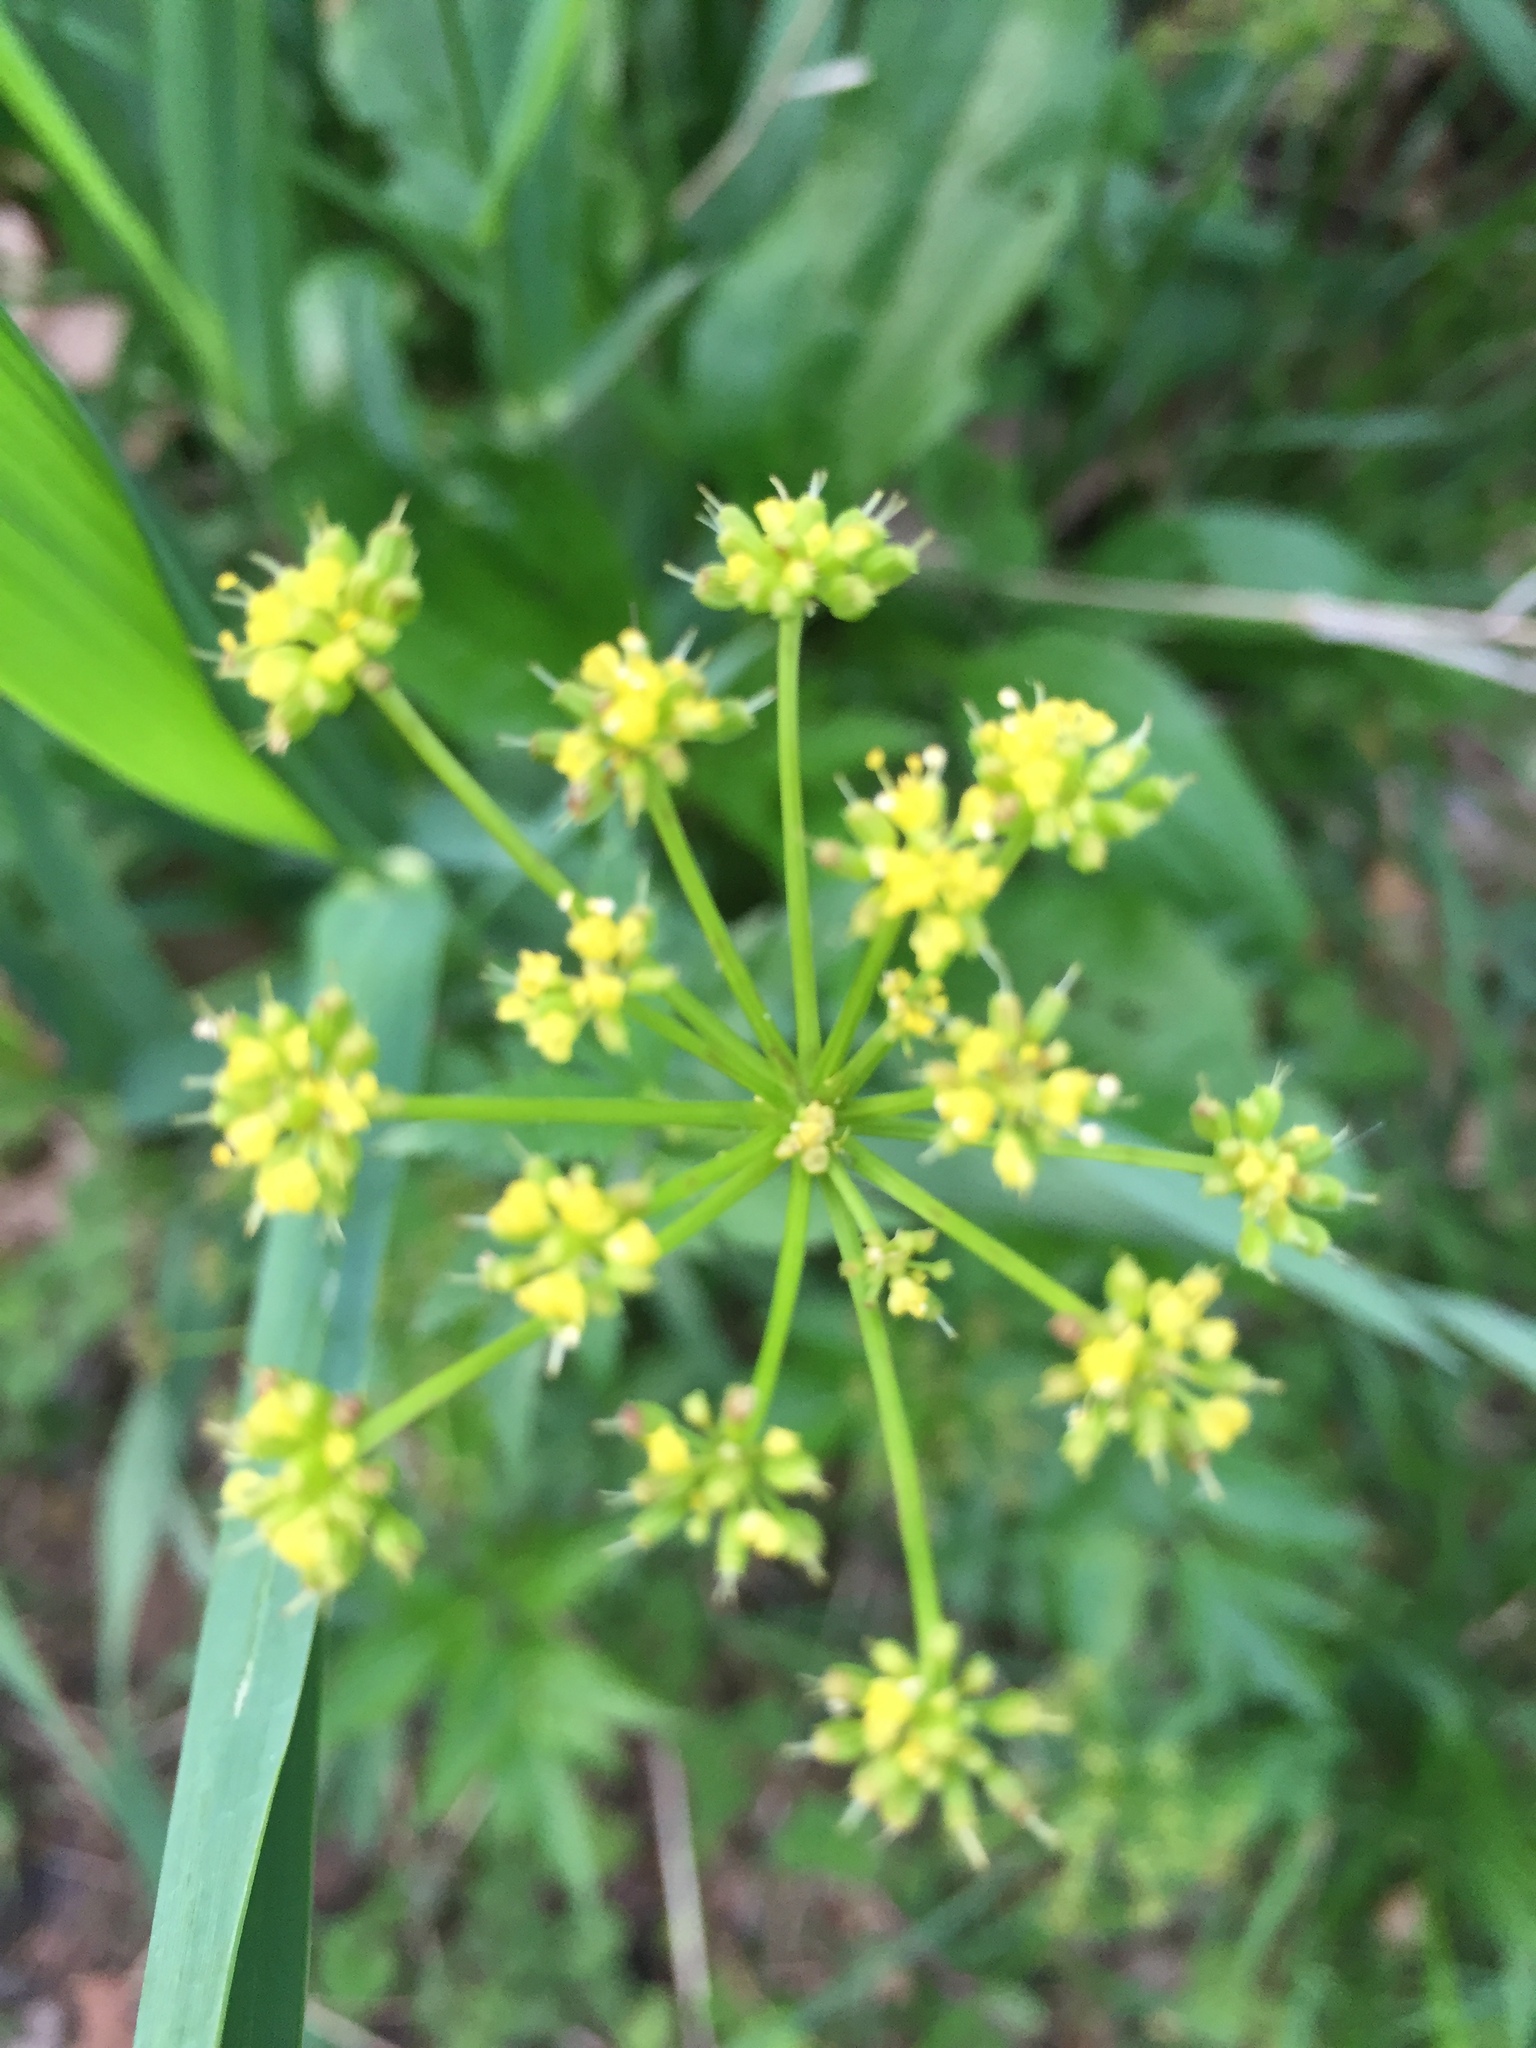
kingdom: Plantae
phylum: Tracheophyta
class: Magnoliopsida
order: Apiales
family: Apiaceae
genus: Zizia
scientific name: Zizia aurea
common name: Golden alexanders
